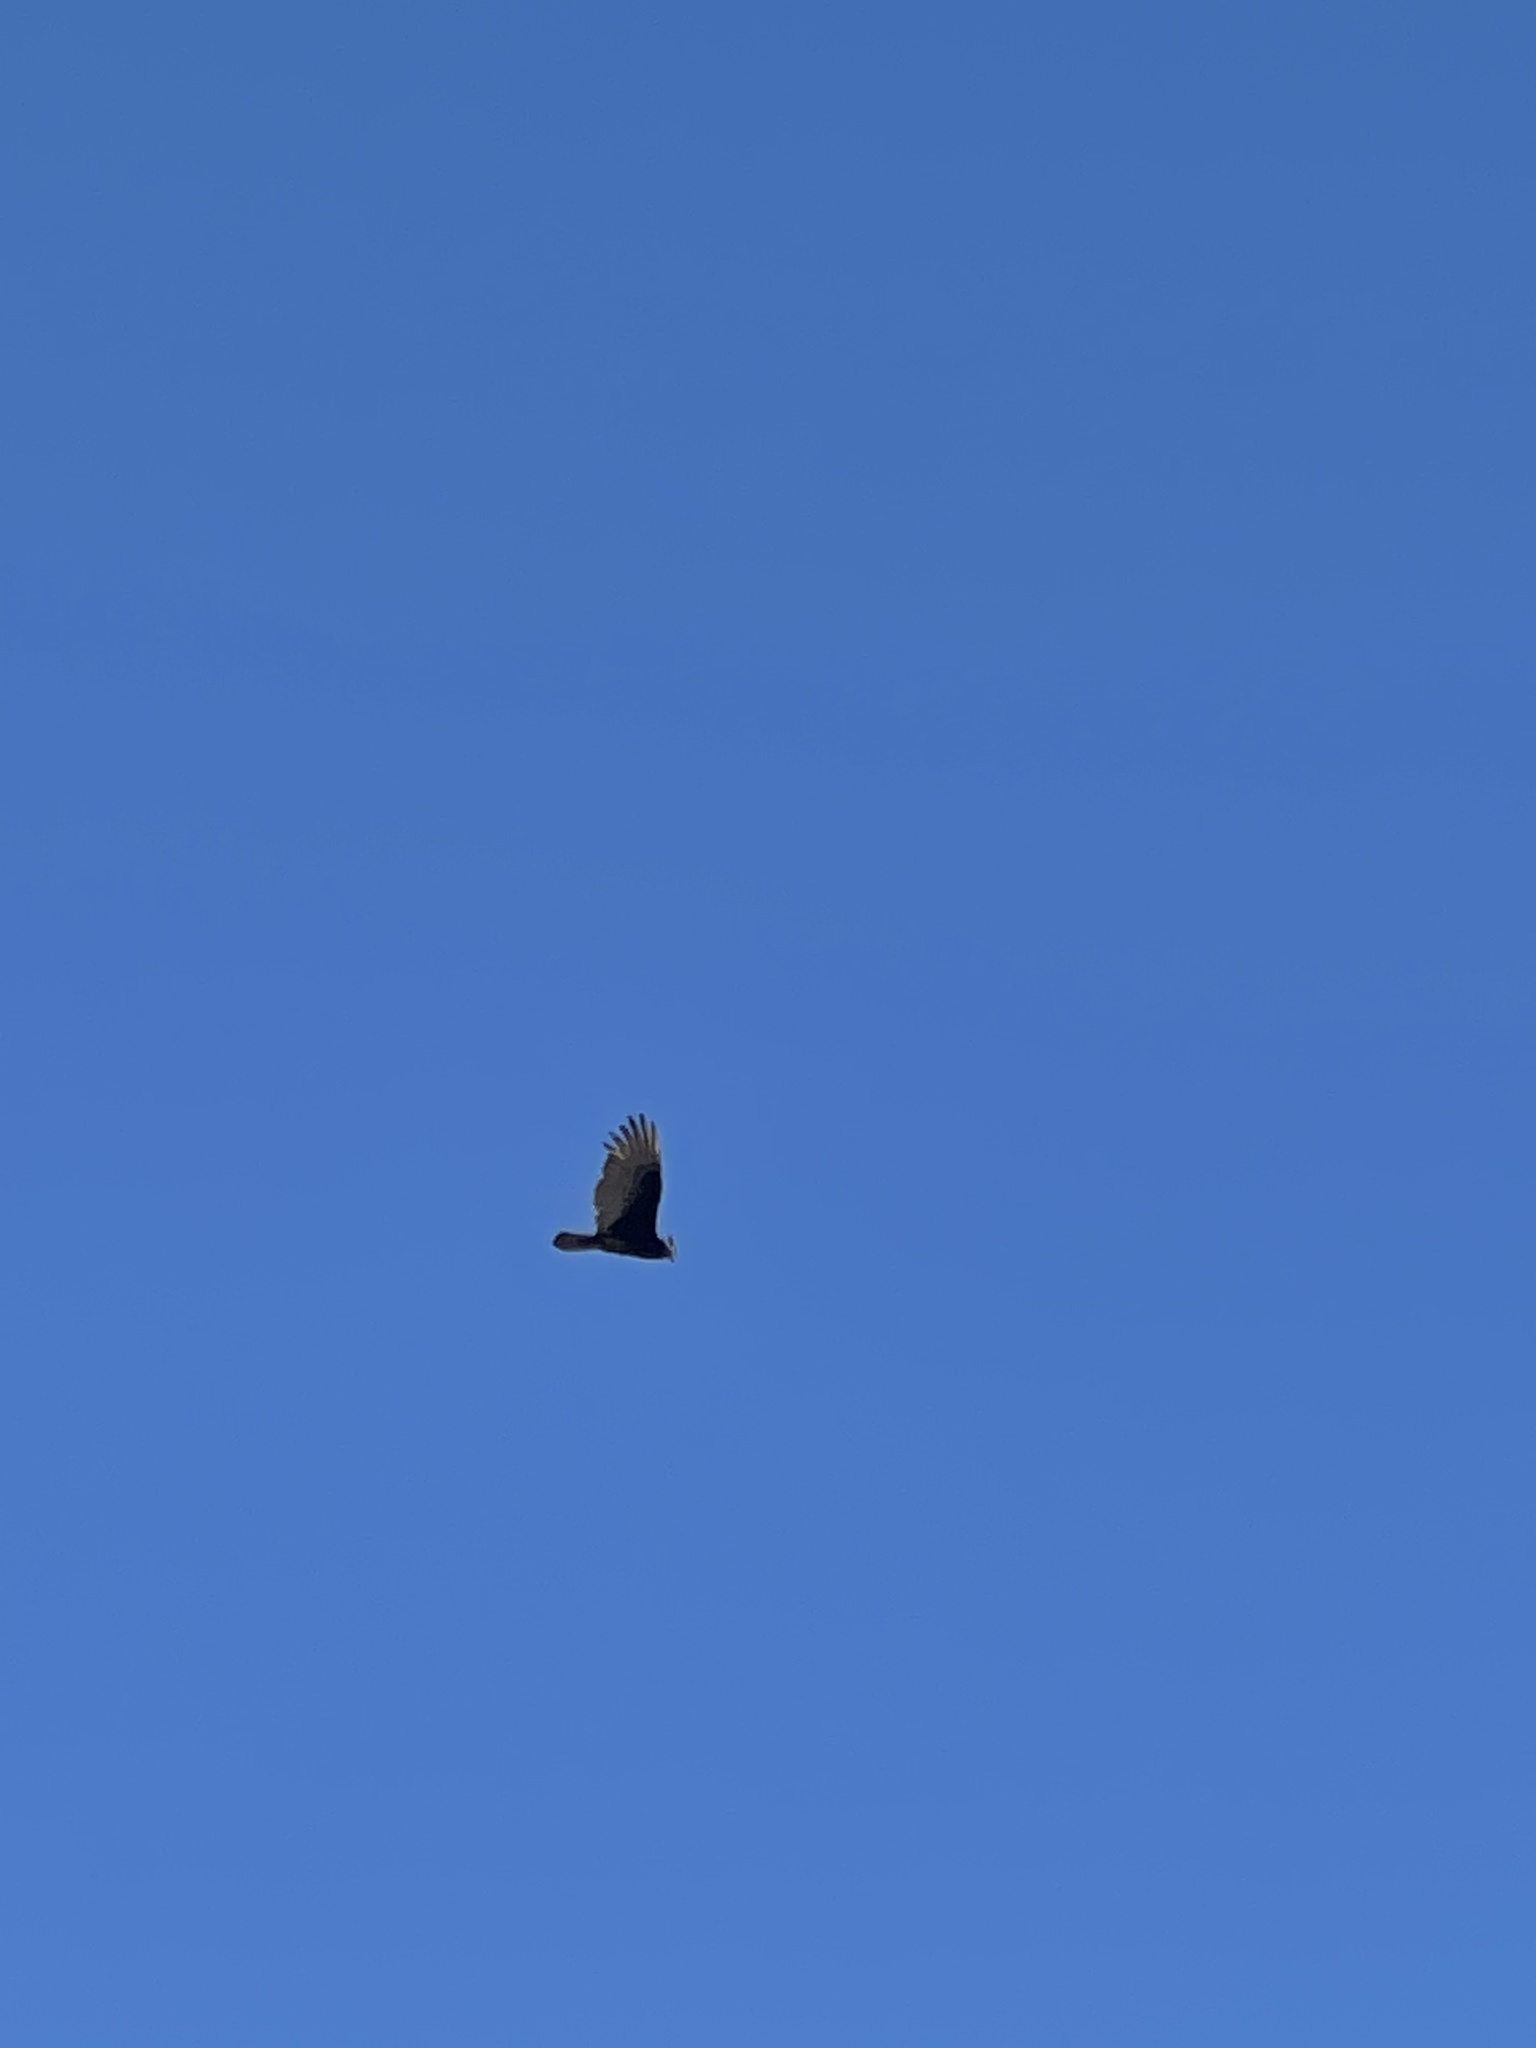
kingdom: Animalia
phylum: Chordata
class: Aves
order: Accipitriformes
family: Cathartidae
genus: Cathartes
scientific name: Cathartes aura
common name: Turkey vulture
